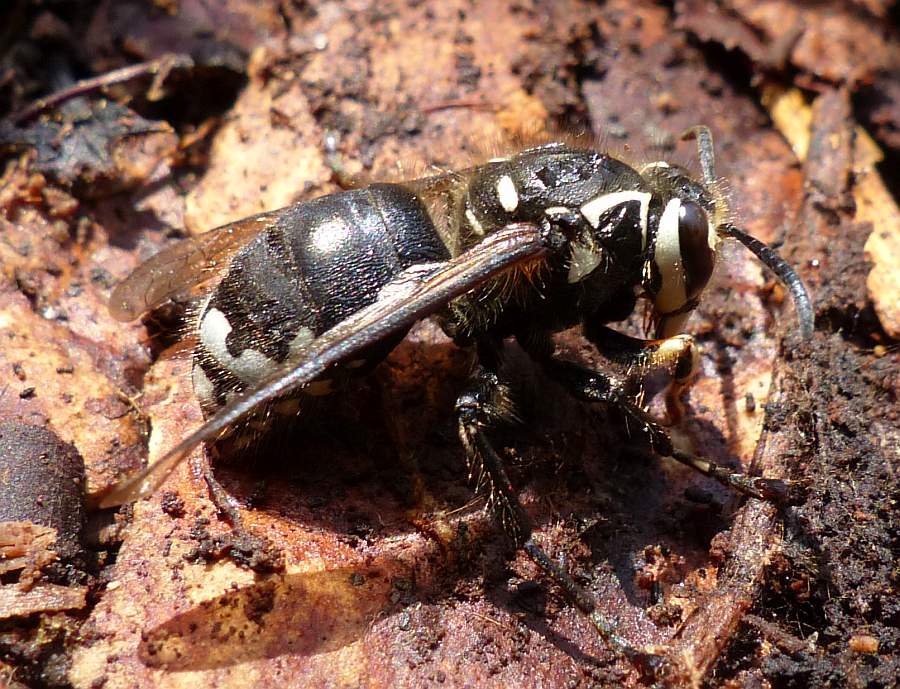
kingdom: Animalia
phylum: Arthropoda
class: Insecta
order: Hymenoptera
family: Vespidae
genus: Dolichovespula
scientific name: Dolichovespula maculata
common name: Bald-faced hornet
